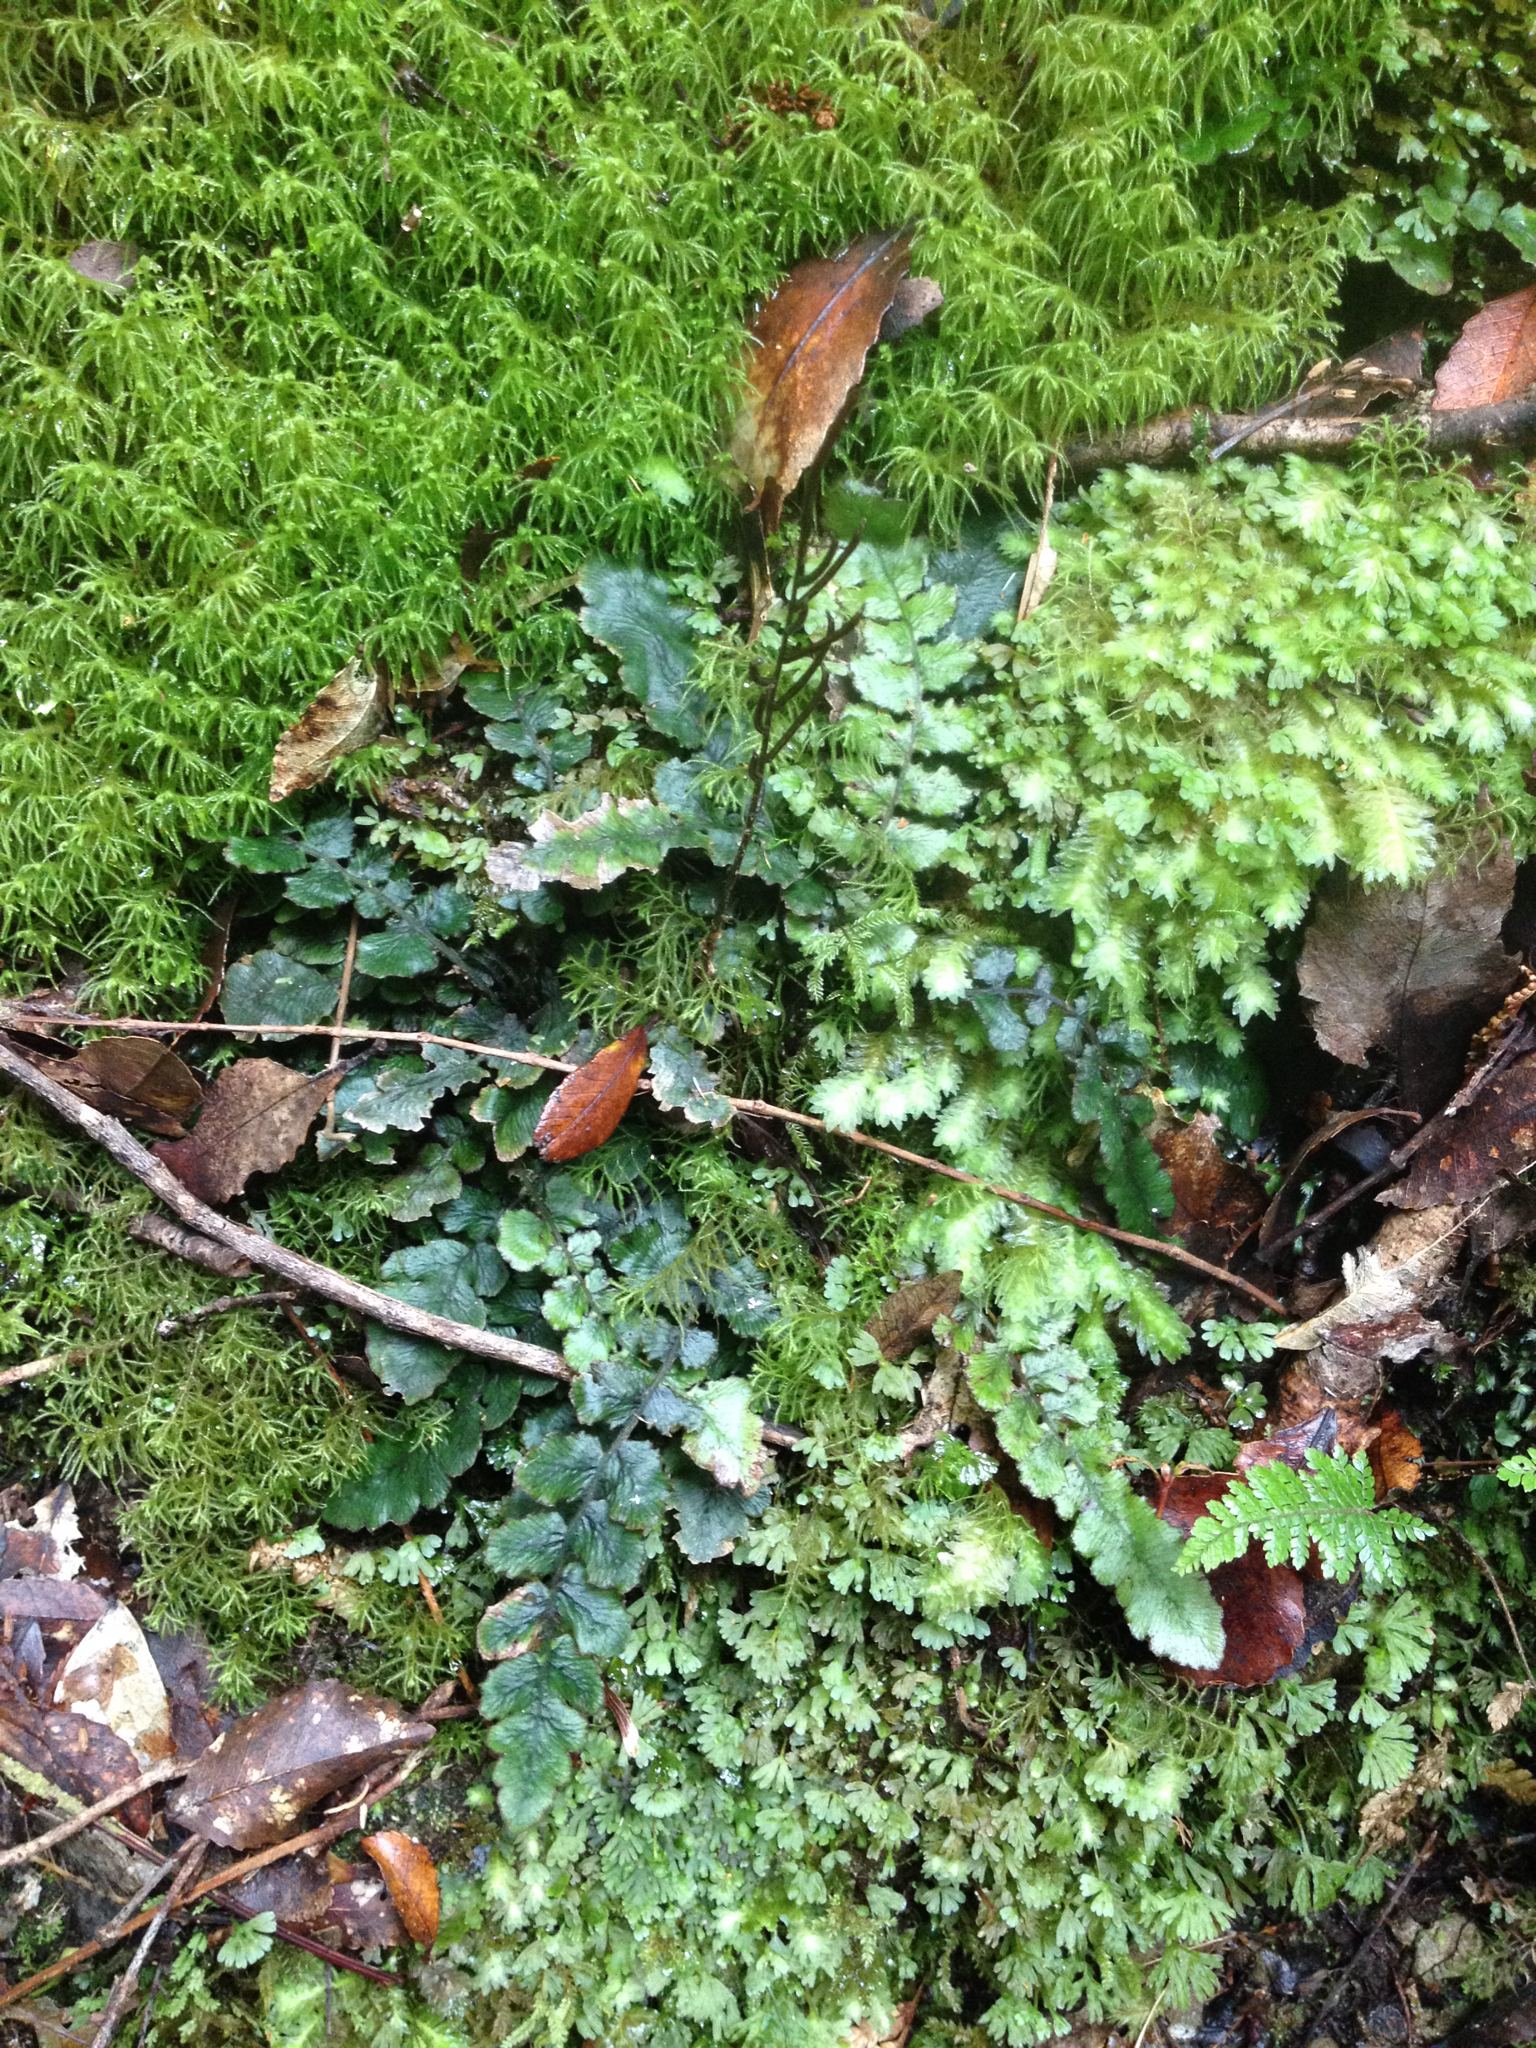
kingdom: Plantae
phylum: Tracheophyta
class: Polypodiopsida
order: Polypodiales
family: Blechnaceae
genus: Cranfillia
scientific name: Cranfillia nigra
